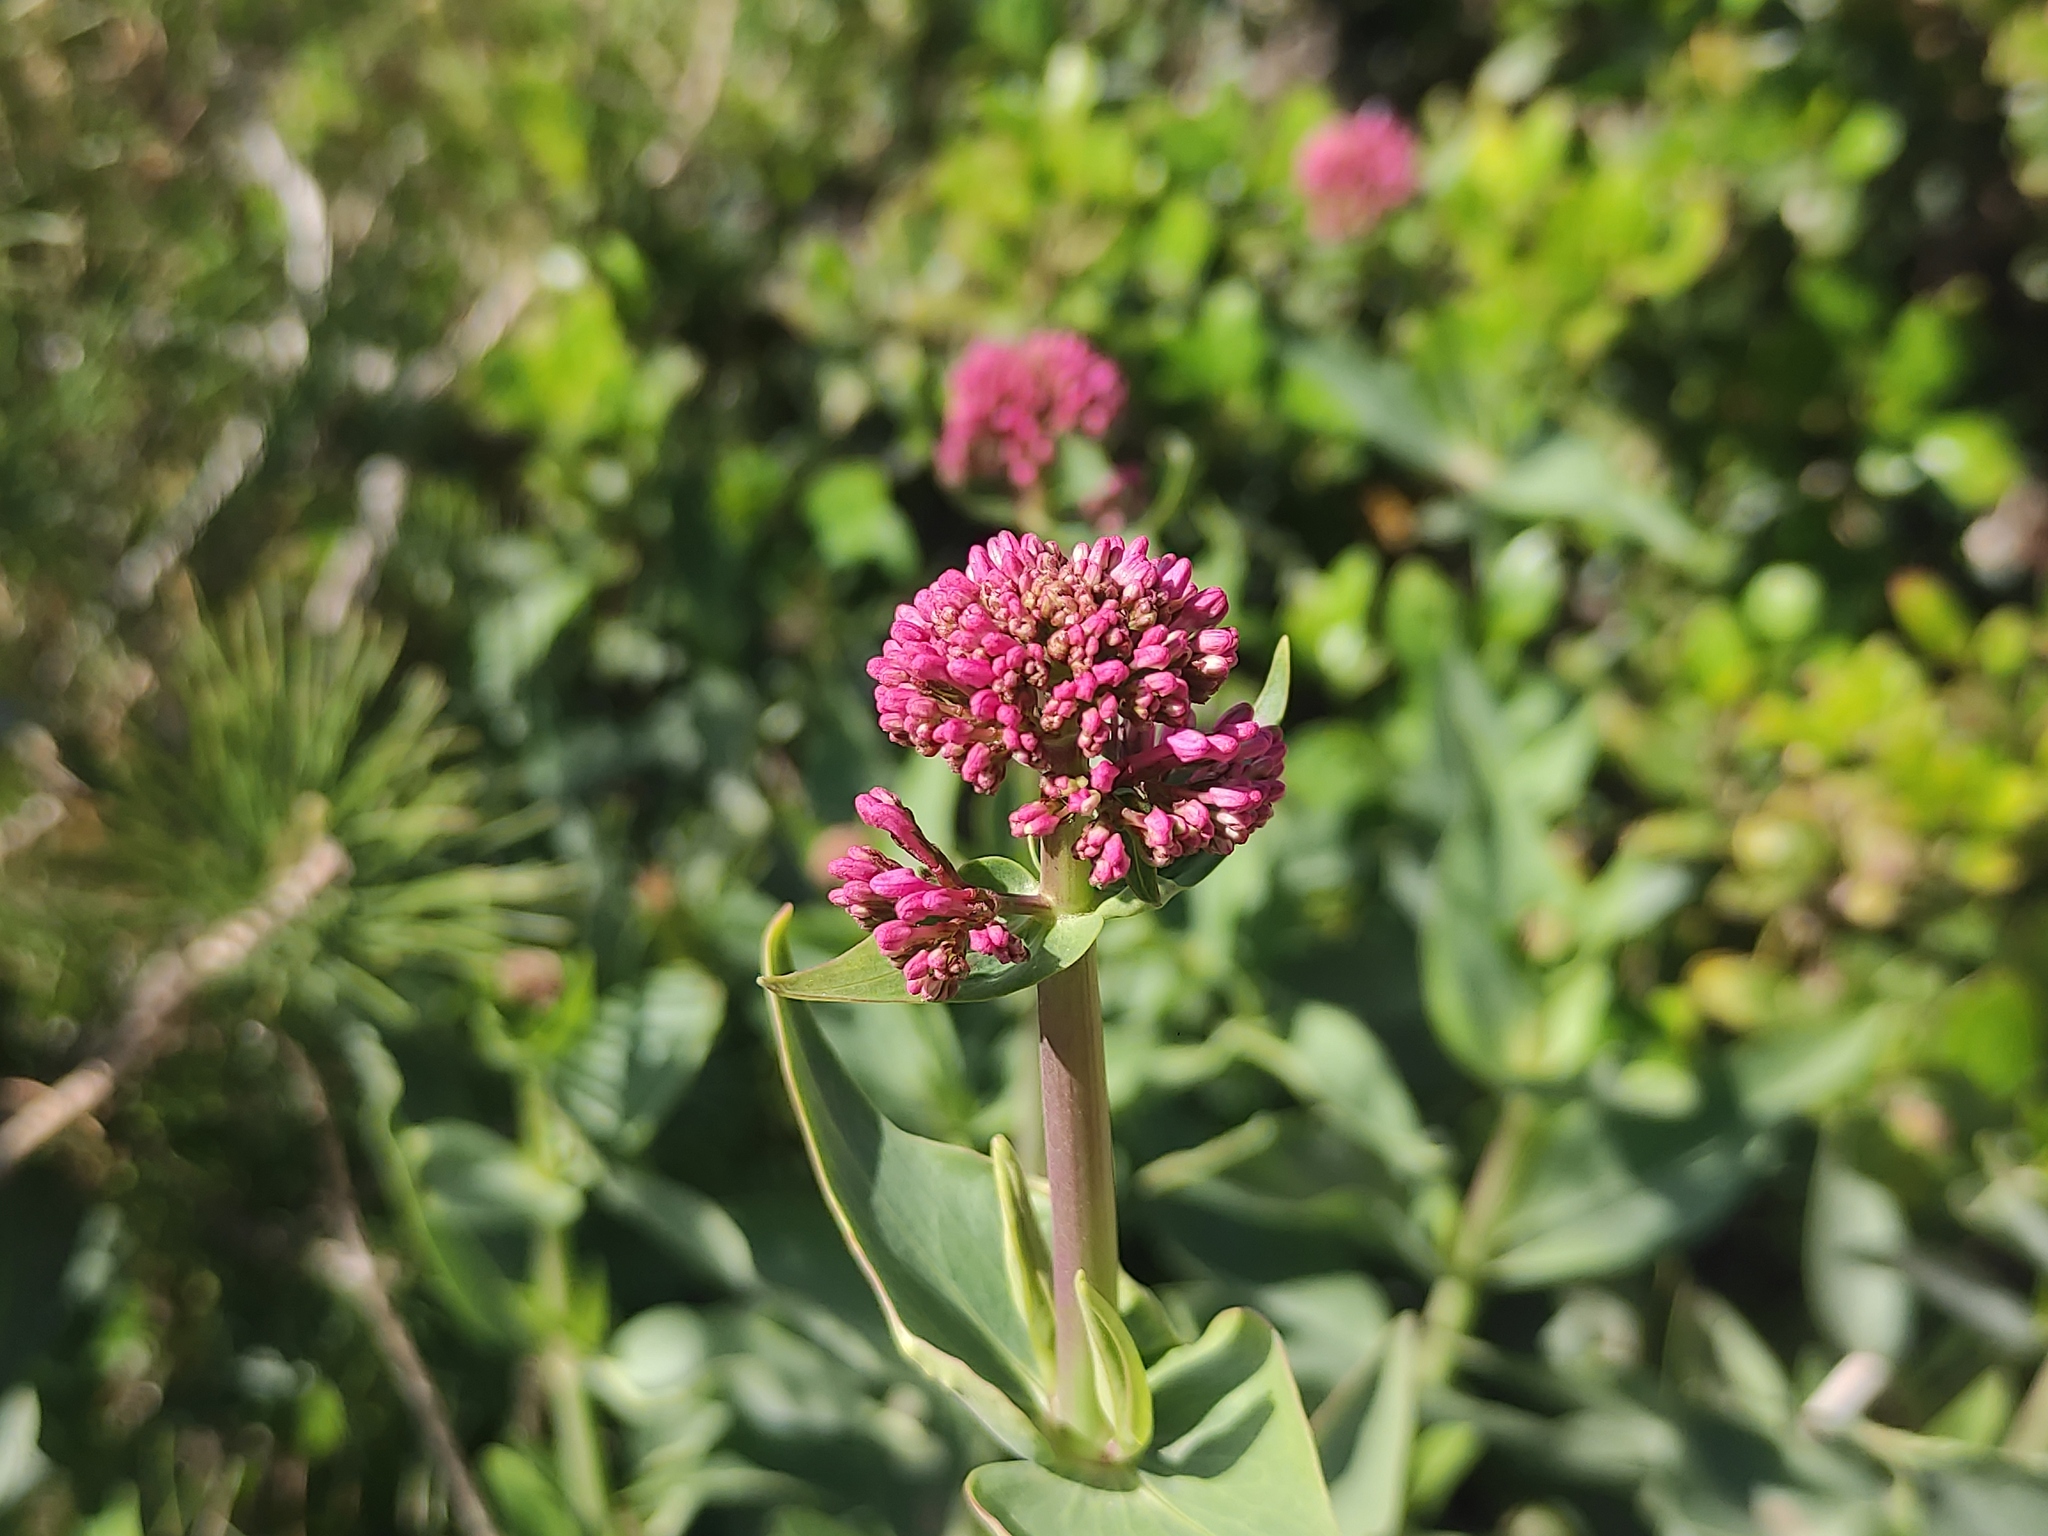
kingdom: Plantae
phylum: Tracheophyta
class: Magnoliopsida
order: Dipsacales
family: Caprifoliaceae
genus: Centranthus
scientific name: Centranthus ruber
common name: Red valerian
